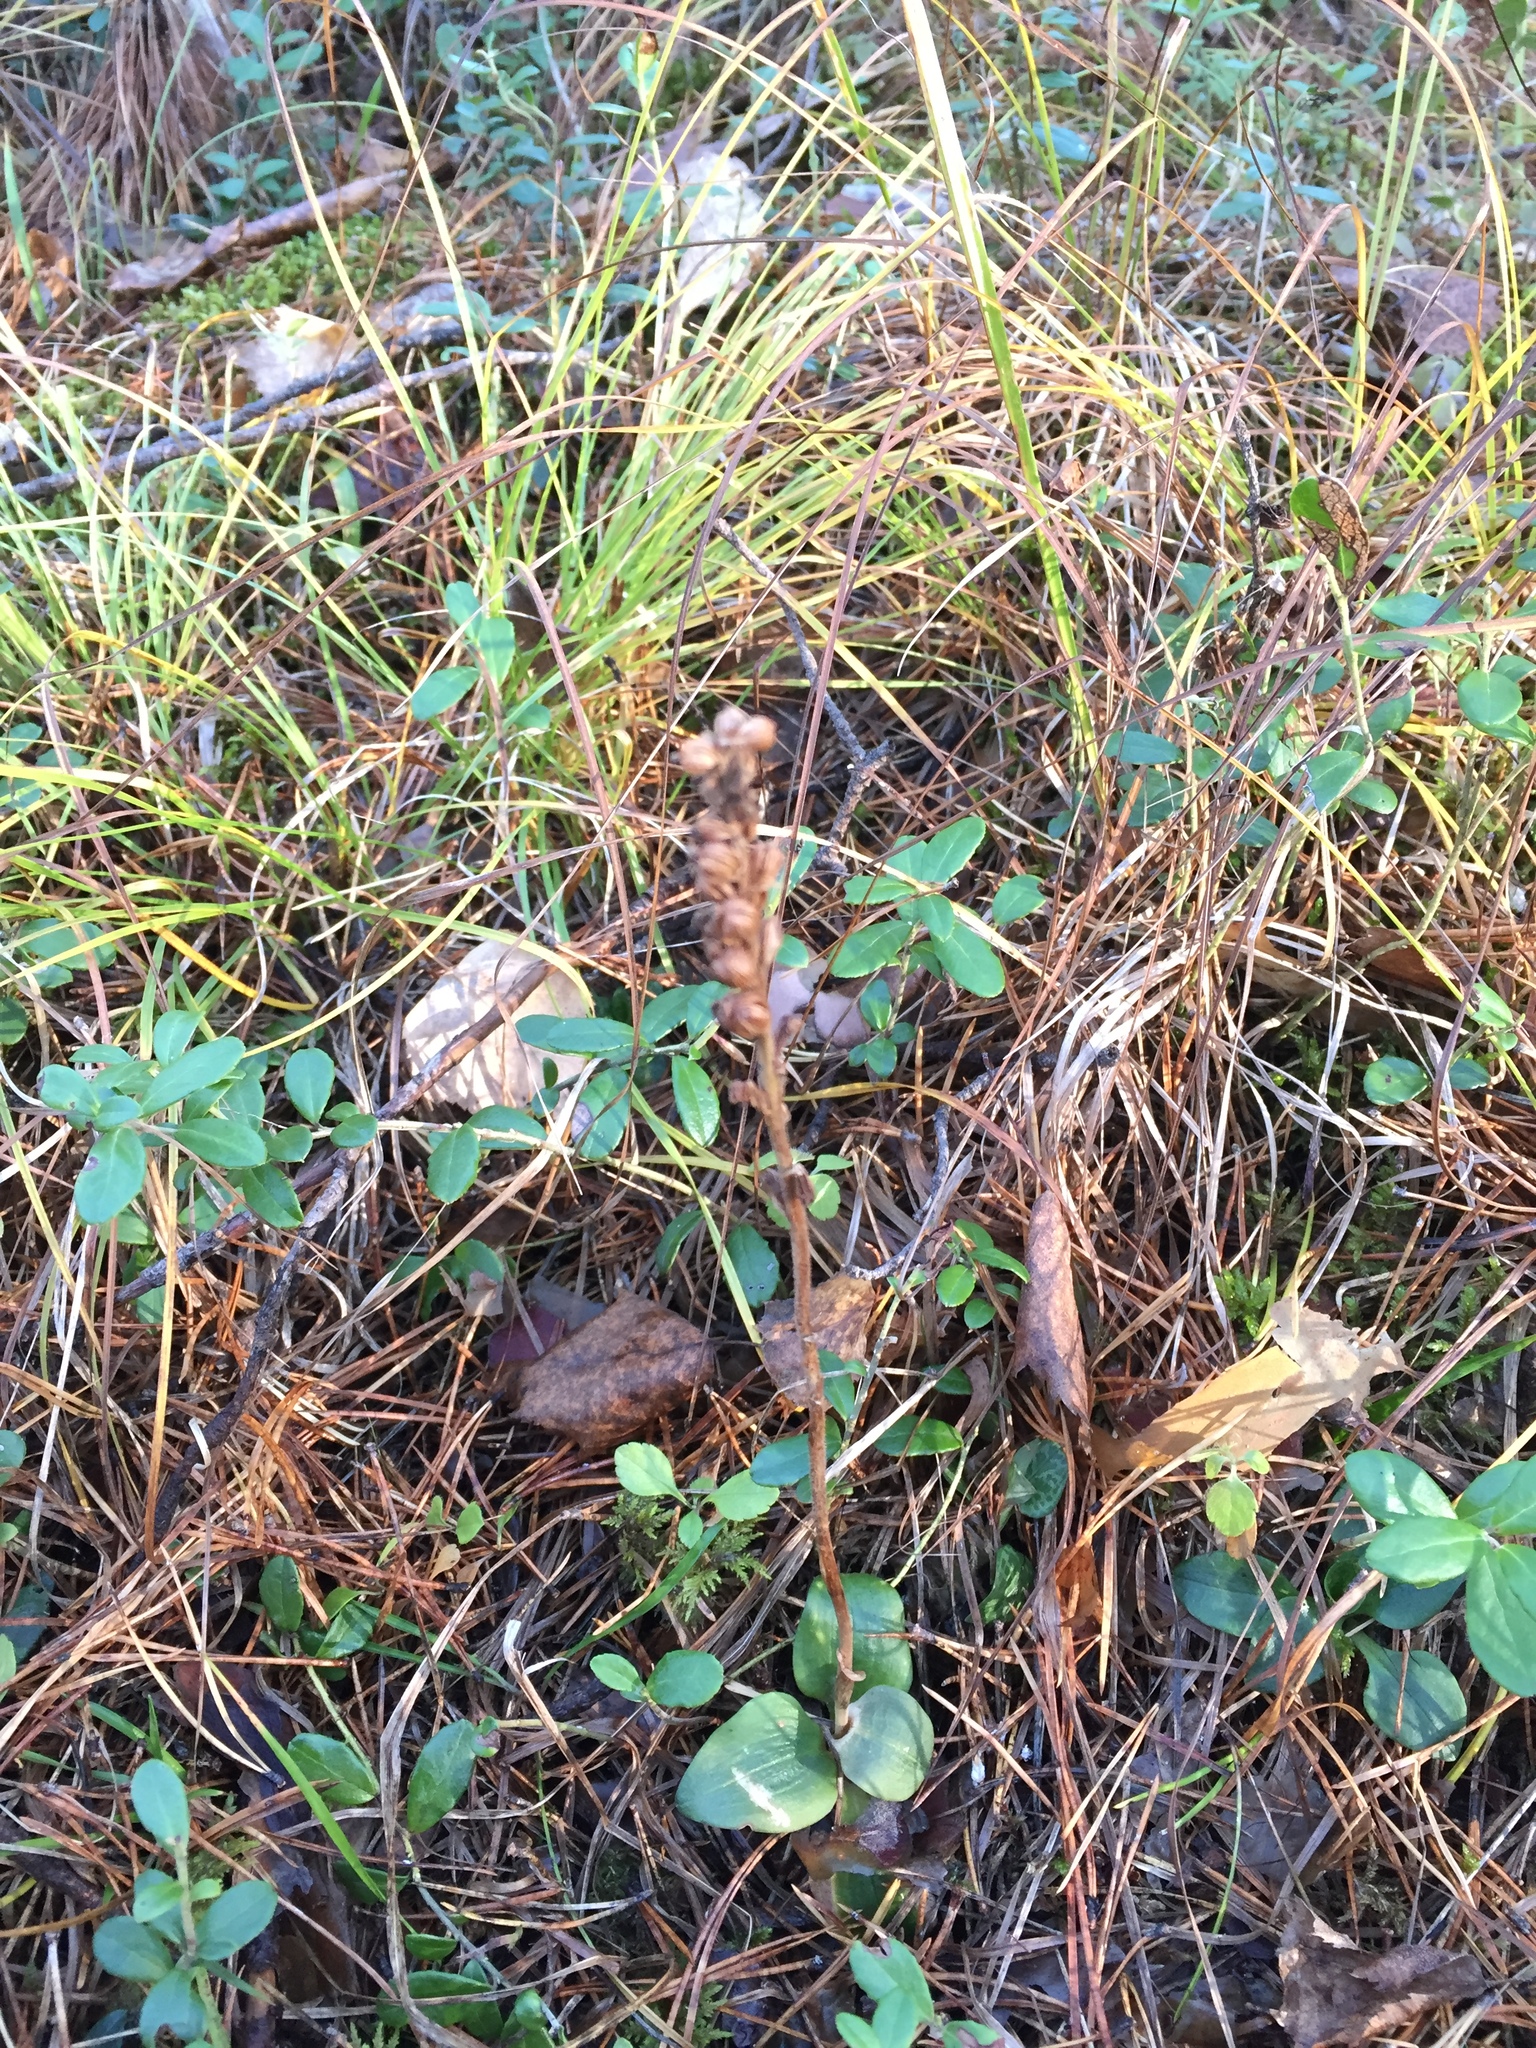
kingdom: Plantae
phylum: Tracheophyta
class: Liliopsida
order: Asparagales
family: Orchidaceae
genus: Goodyera
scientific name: Goodyera repens
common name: Creeping lady's-tresses
